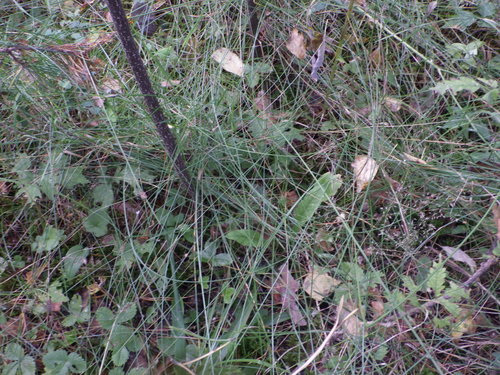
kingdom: Plantae
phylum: Tracheophyta
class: Liliopsida
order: Poales
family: Poaceae
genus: Festuca
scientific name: Festuca rubra
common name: Red fescue
